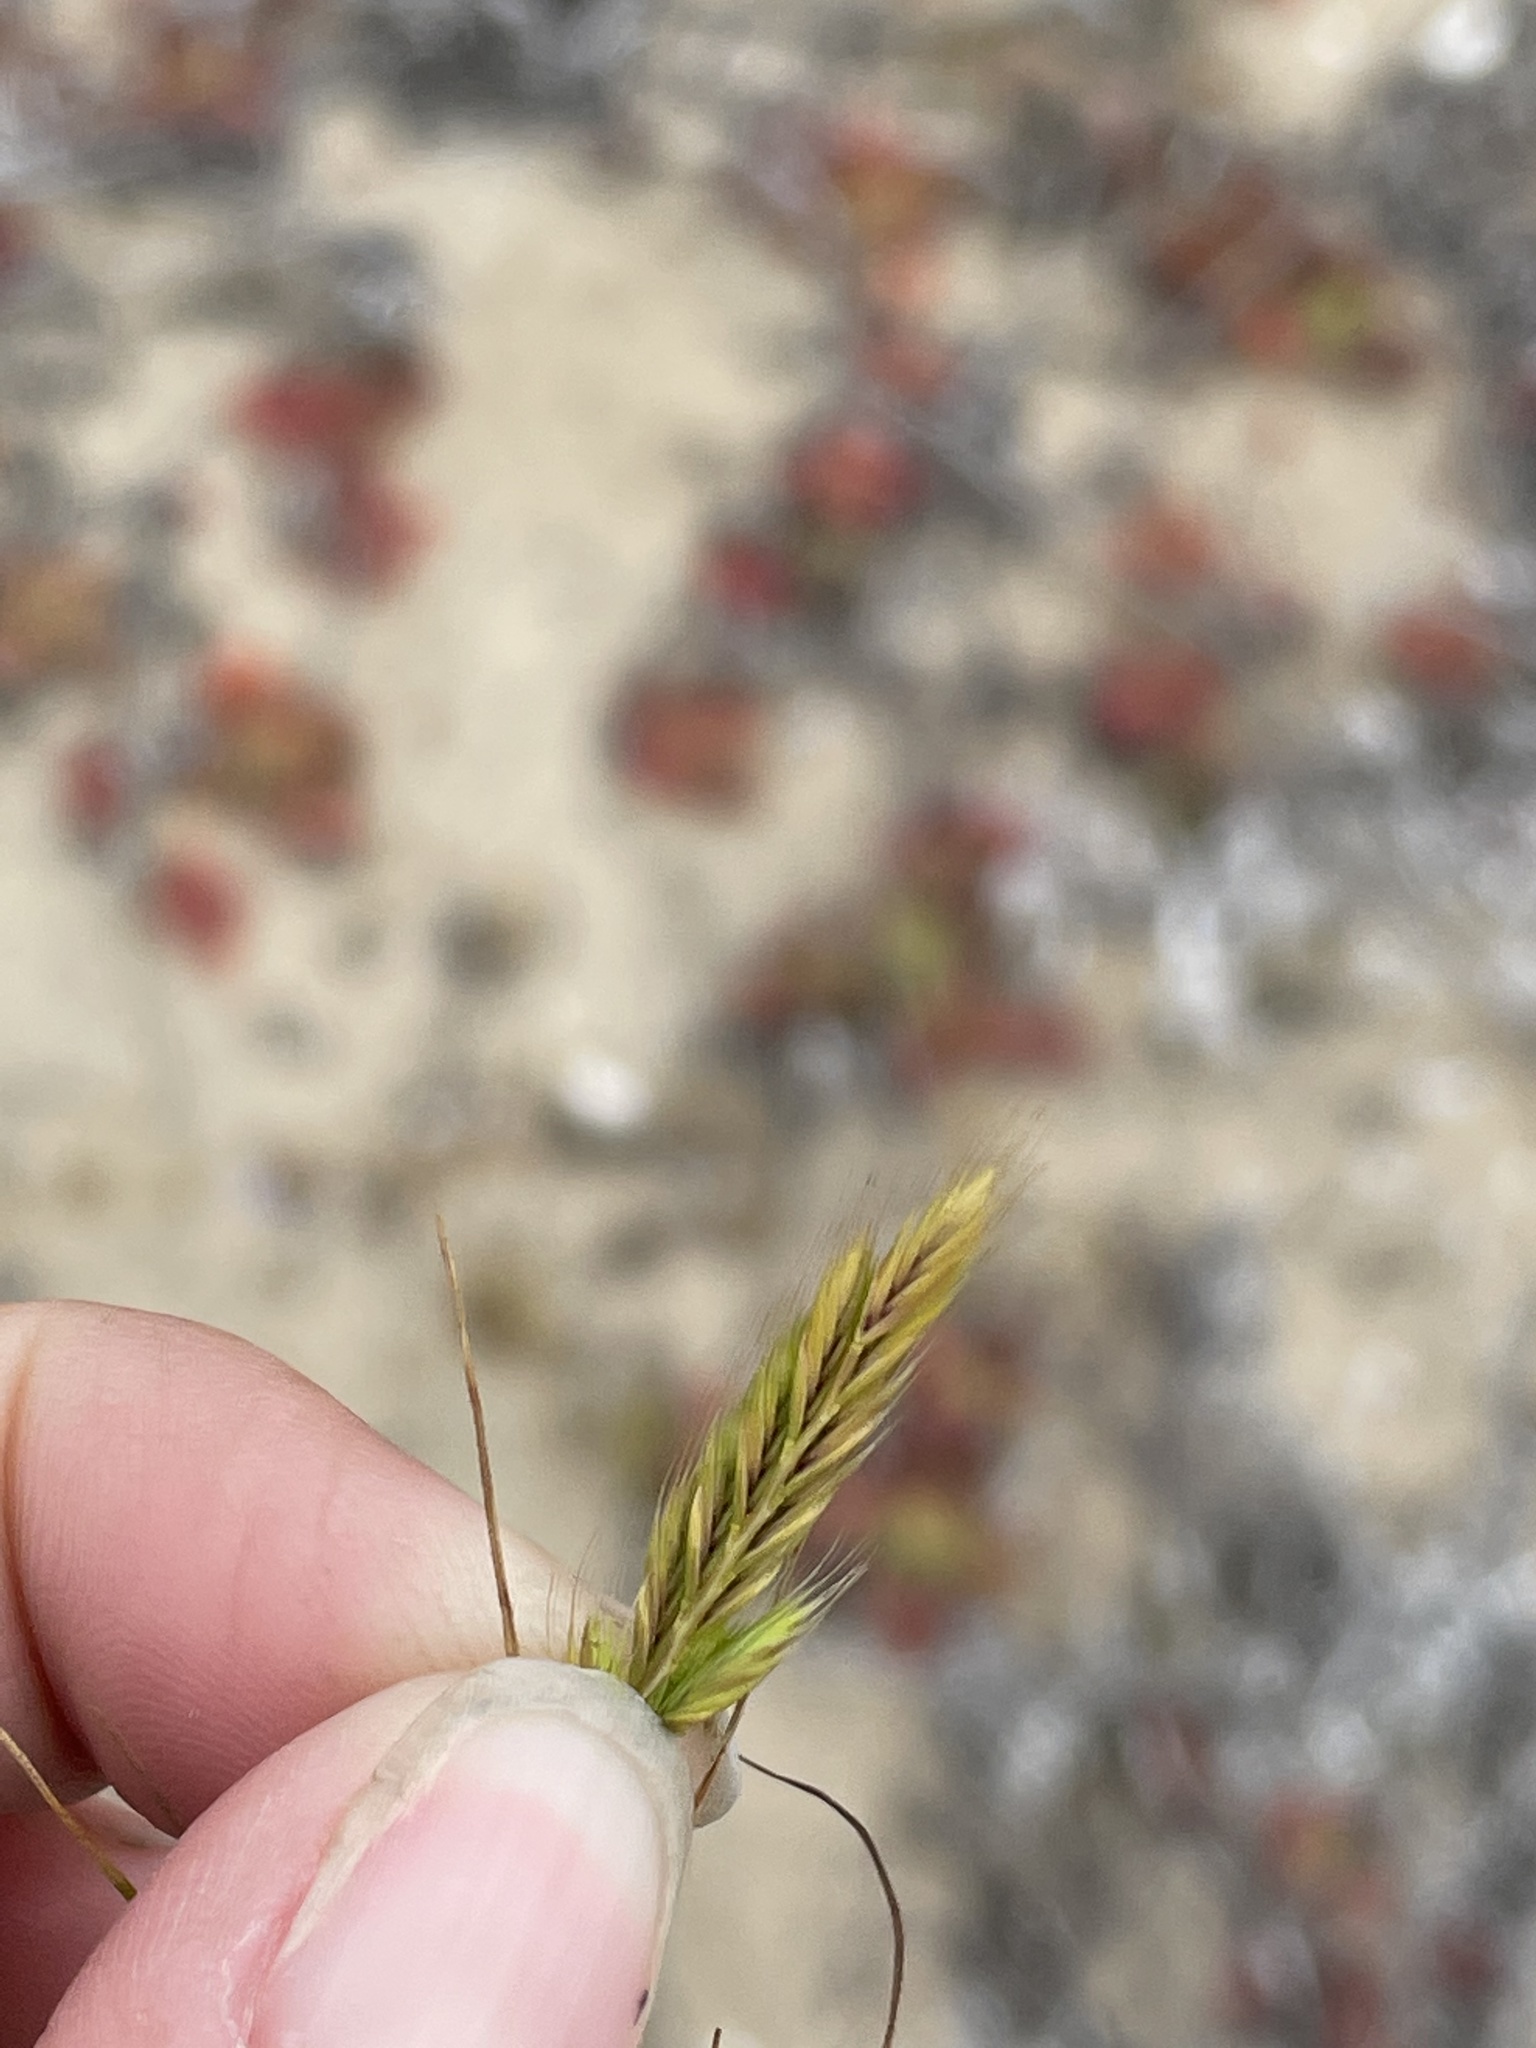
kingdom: Plantae
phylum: Tracheophyta
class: Liliopsida
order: Poales
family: Poaceae
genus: Festuca
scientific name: Festuca octoflora
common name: Sixweeks grass
